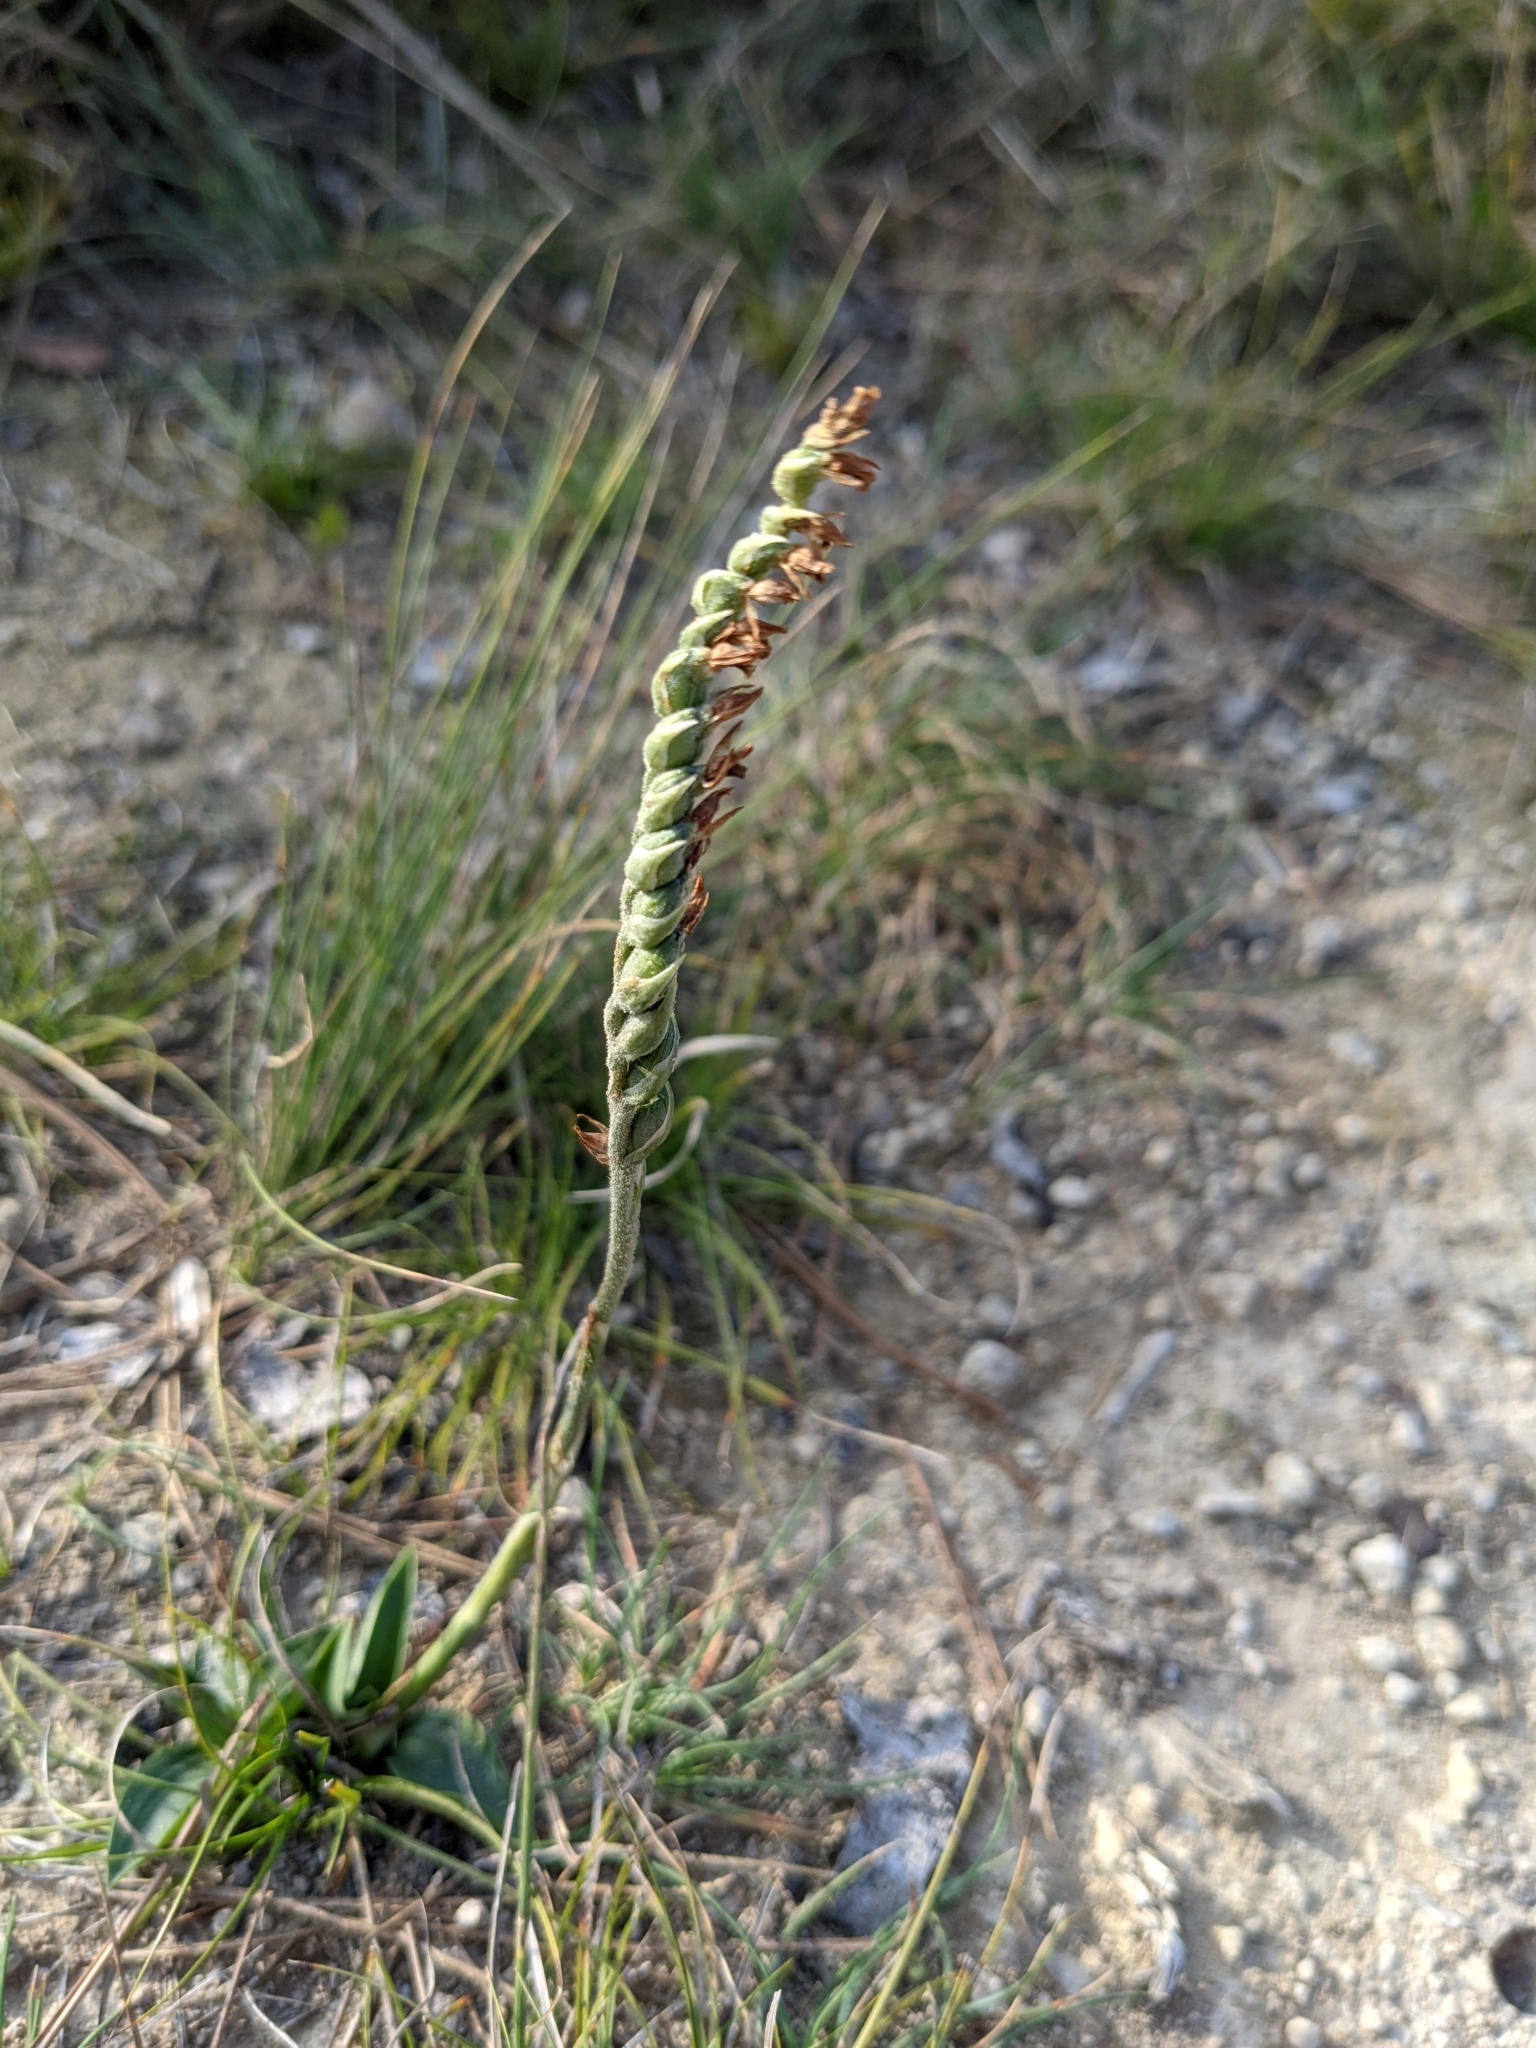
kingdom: Plantae
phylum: Tracheophyta
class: Liliopsida
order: Asparagales
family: Orchidaceae
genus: Spiranthes
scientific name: Spiranthes spiralis
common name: Autumn lady's-tresses
